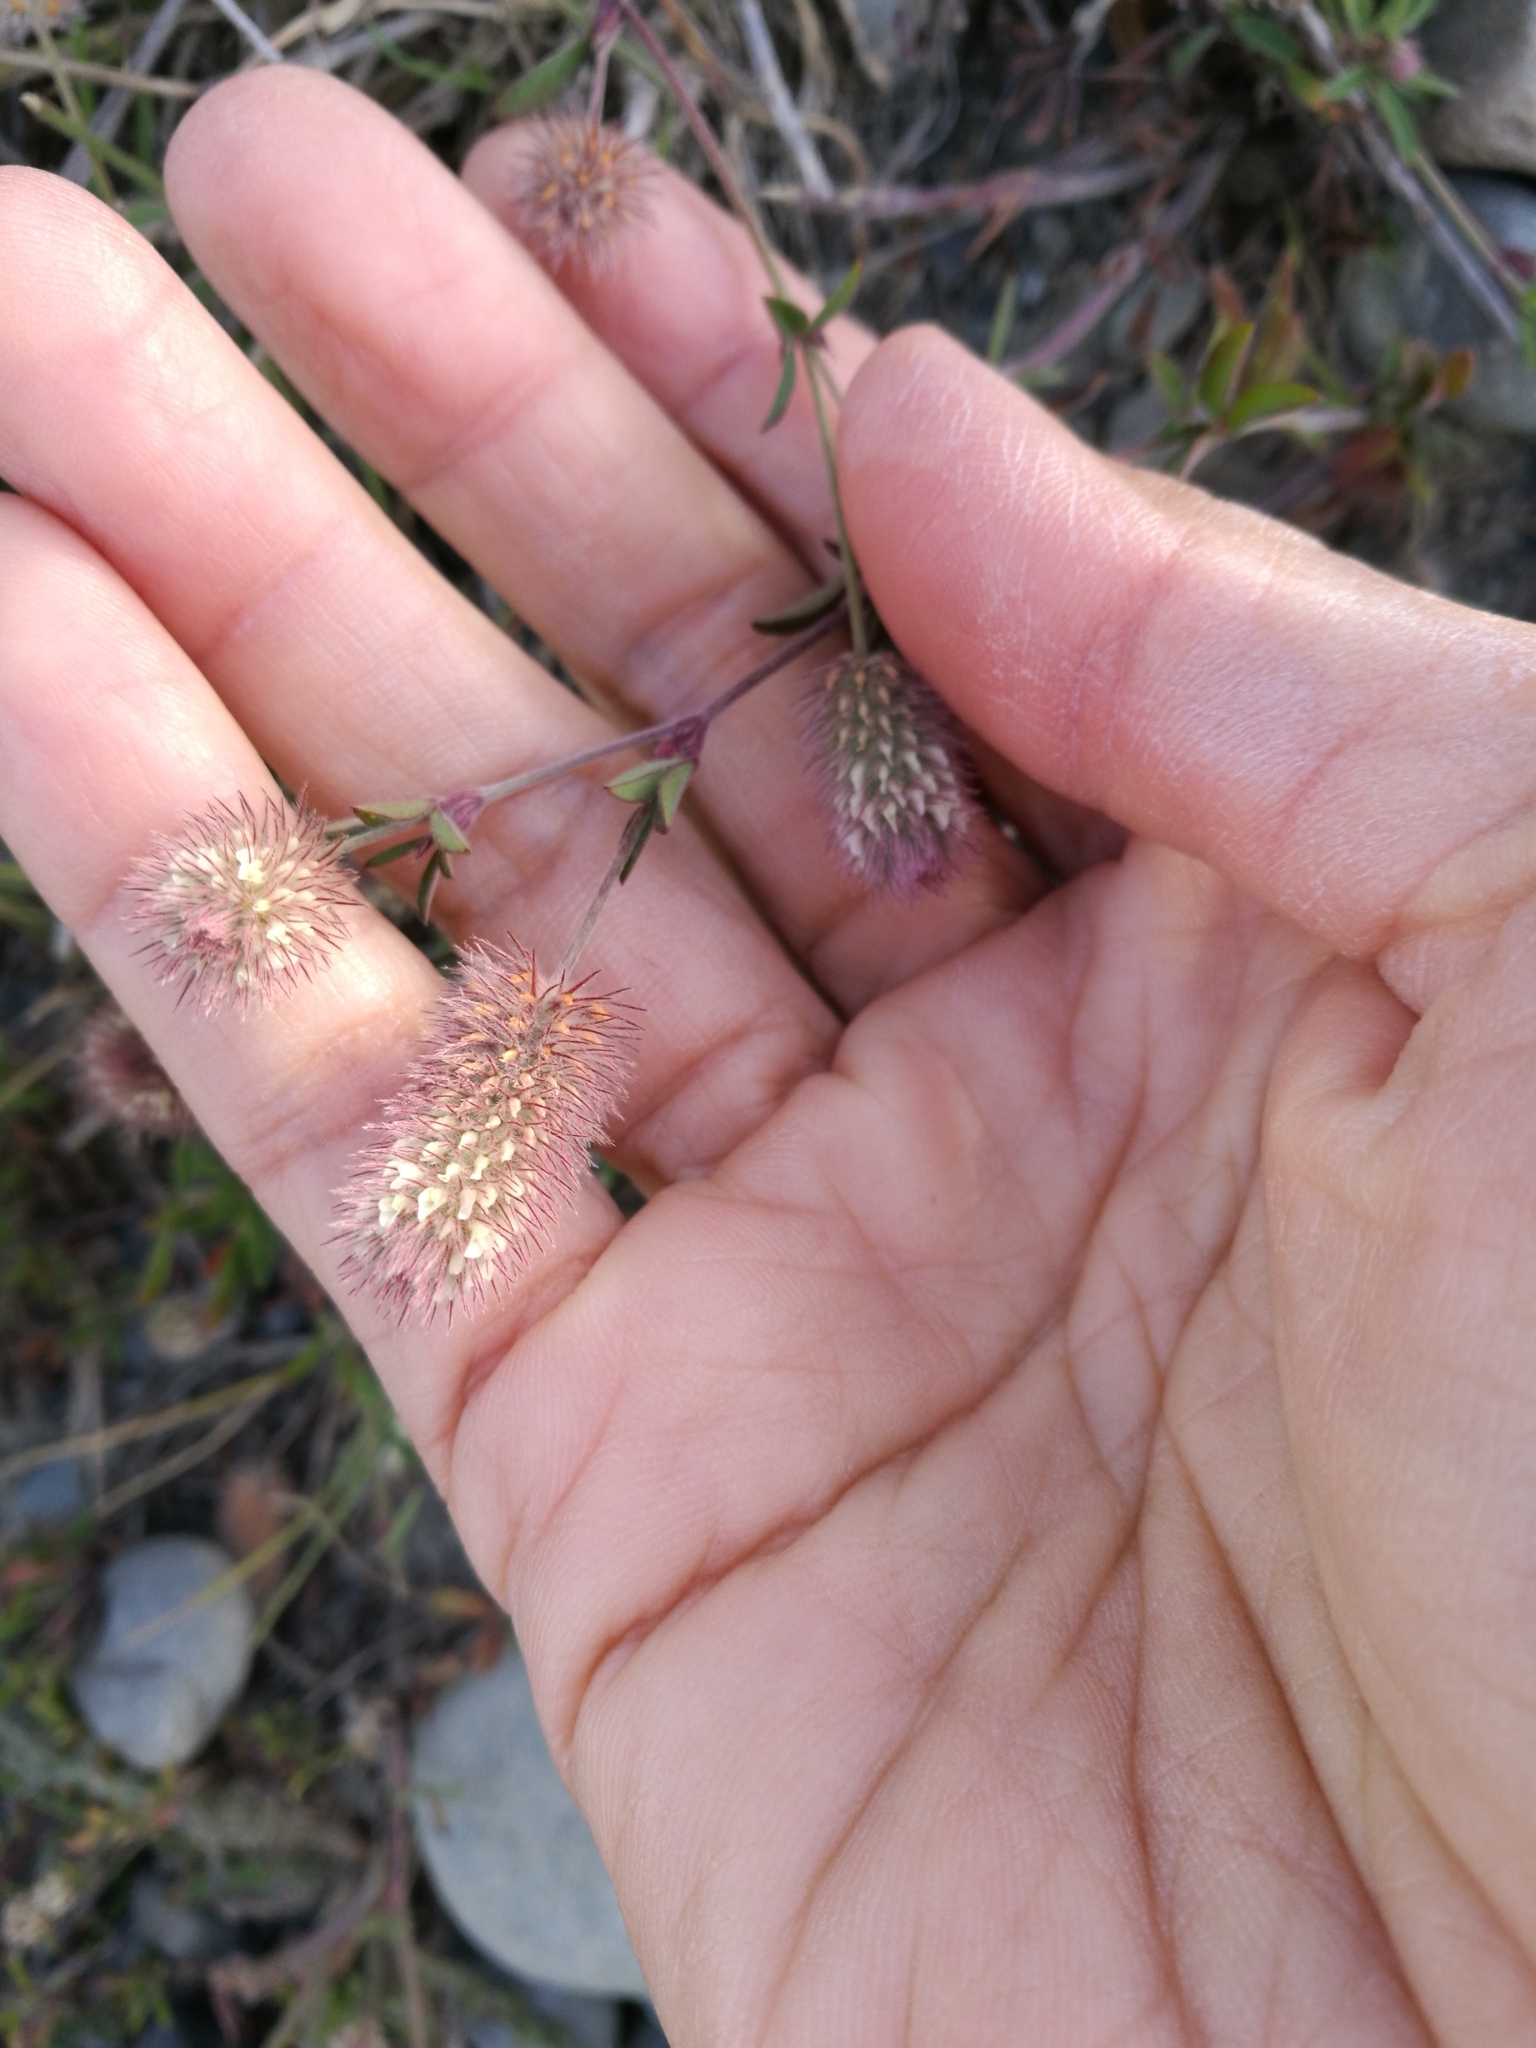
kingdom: Plantae
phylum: Tracheophyta
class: Magnoliopsida
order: Fabales
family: Fabaceae
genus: Trifolium
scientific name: Trifolium arvense
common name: Hare's-foot clover
